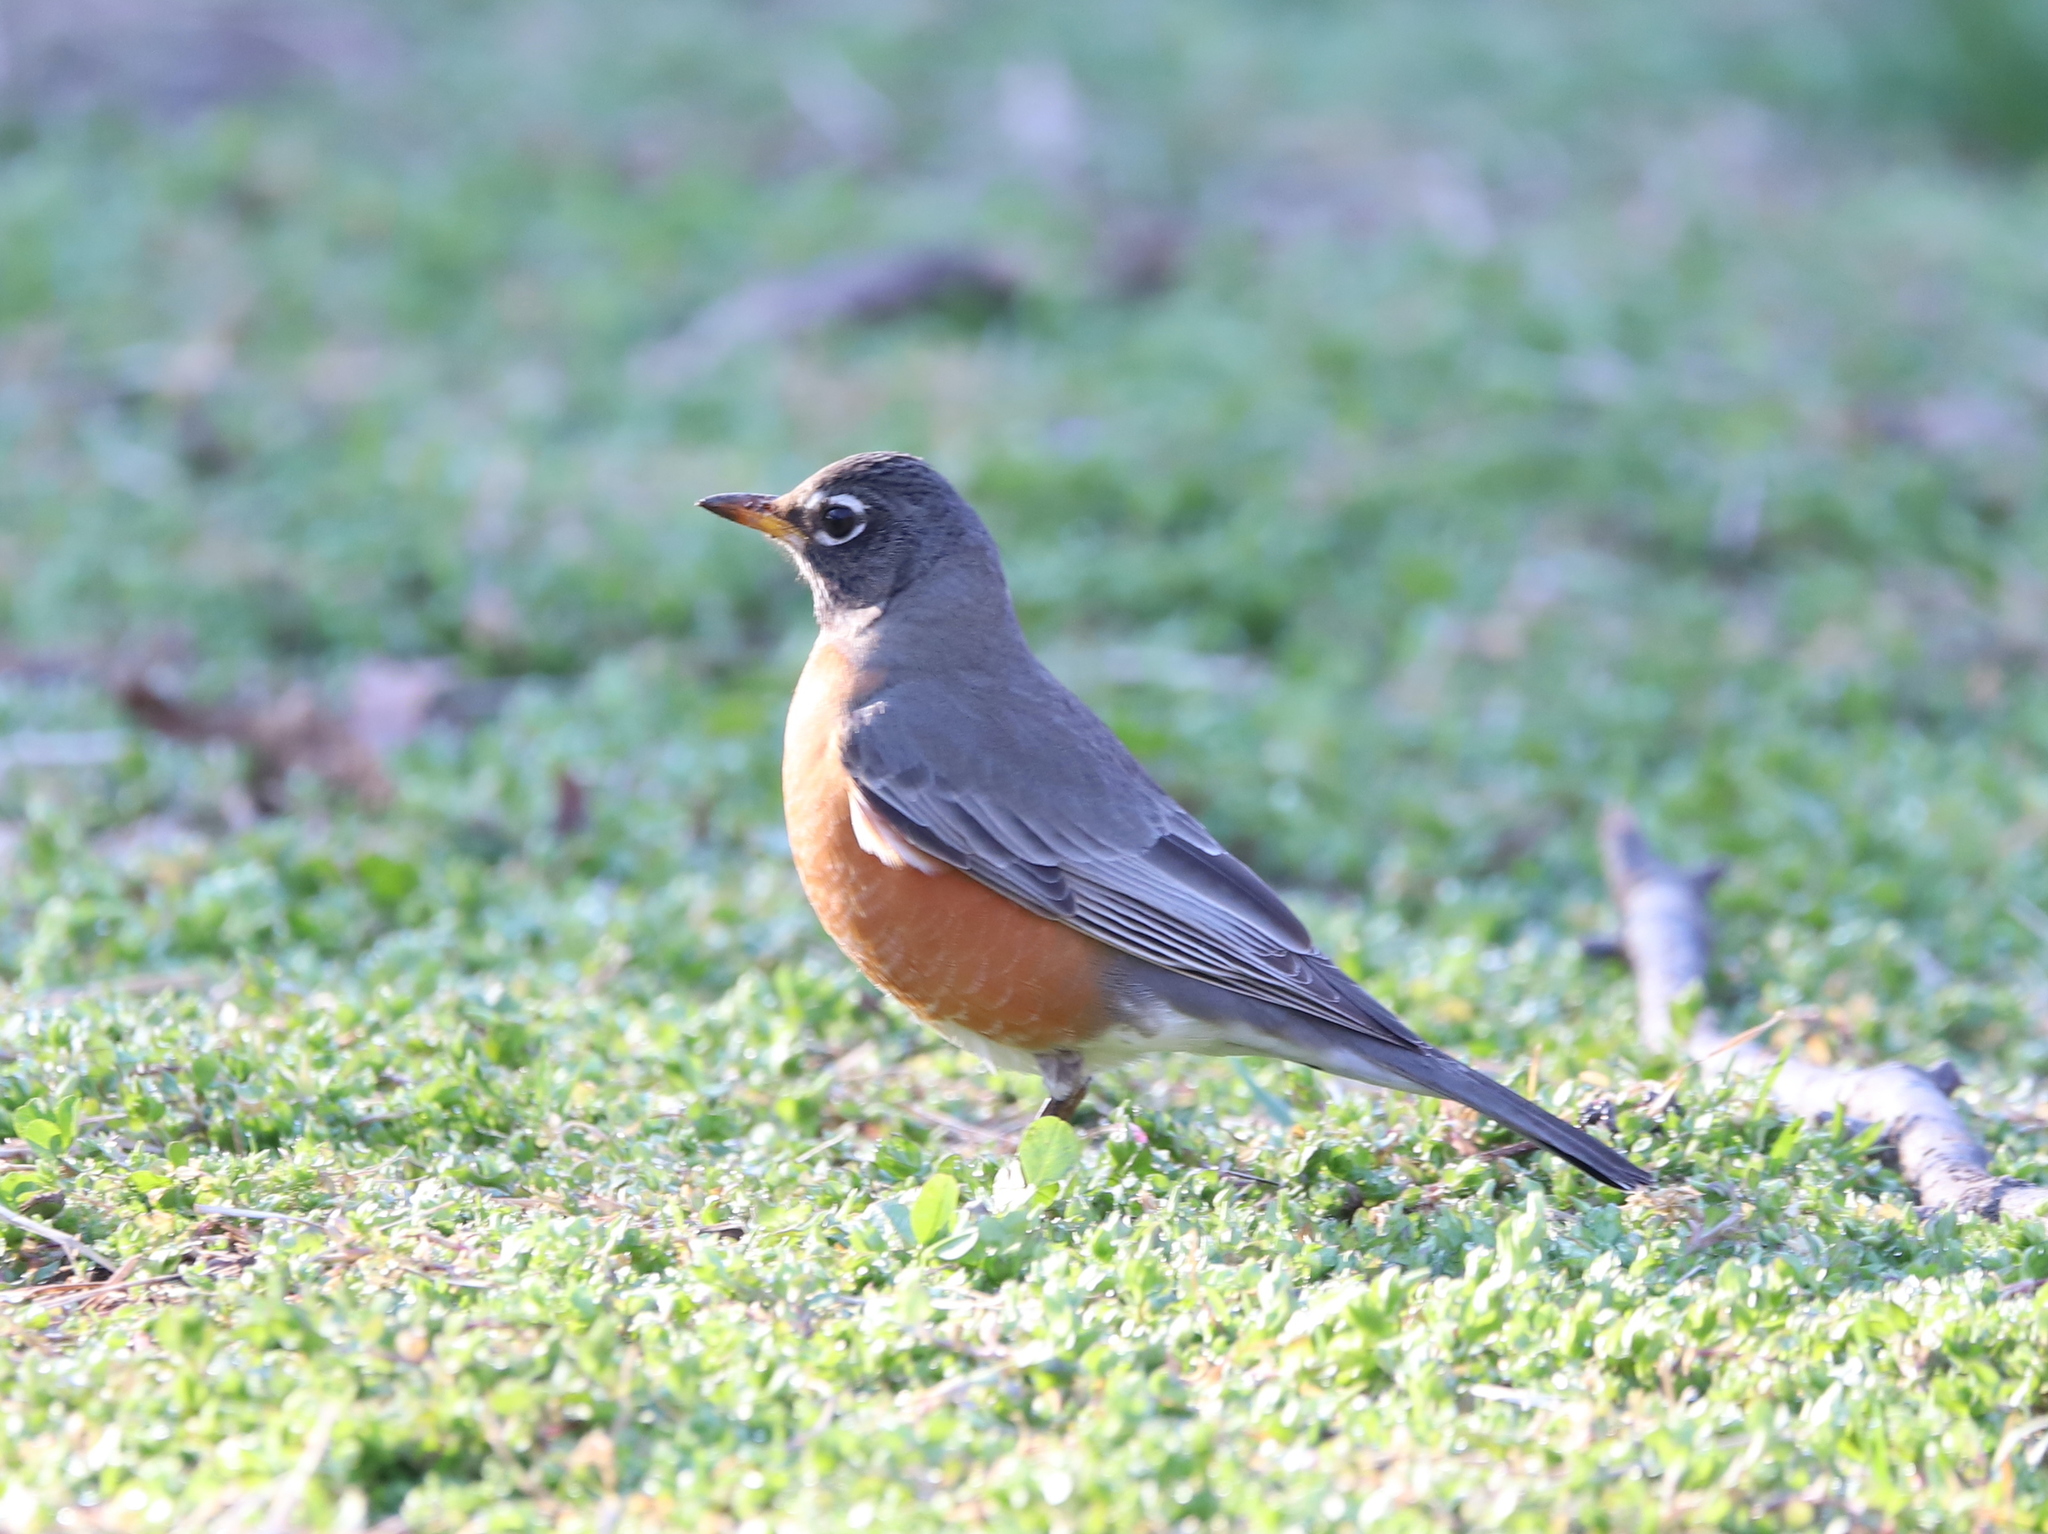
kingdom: Animalia
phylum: Chordata
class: Aves
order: Passeriformes
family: Turdidae
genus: Turdus
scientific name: Turdus migratorius
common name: American robin
